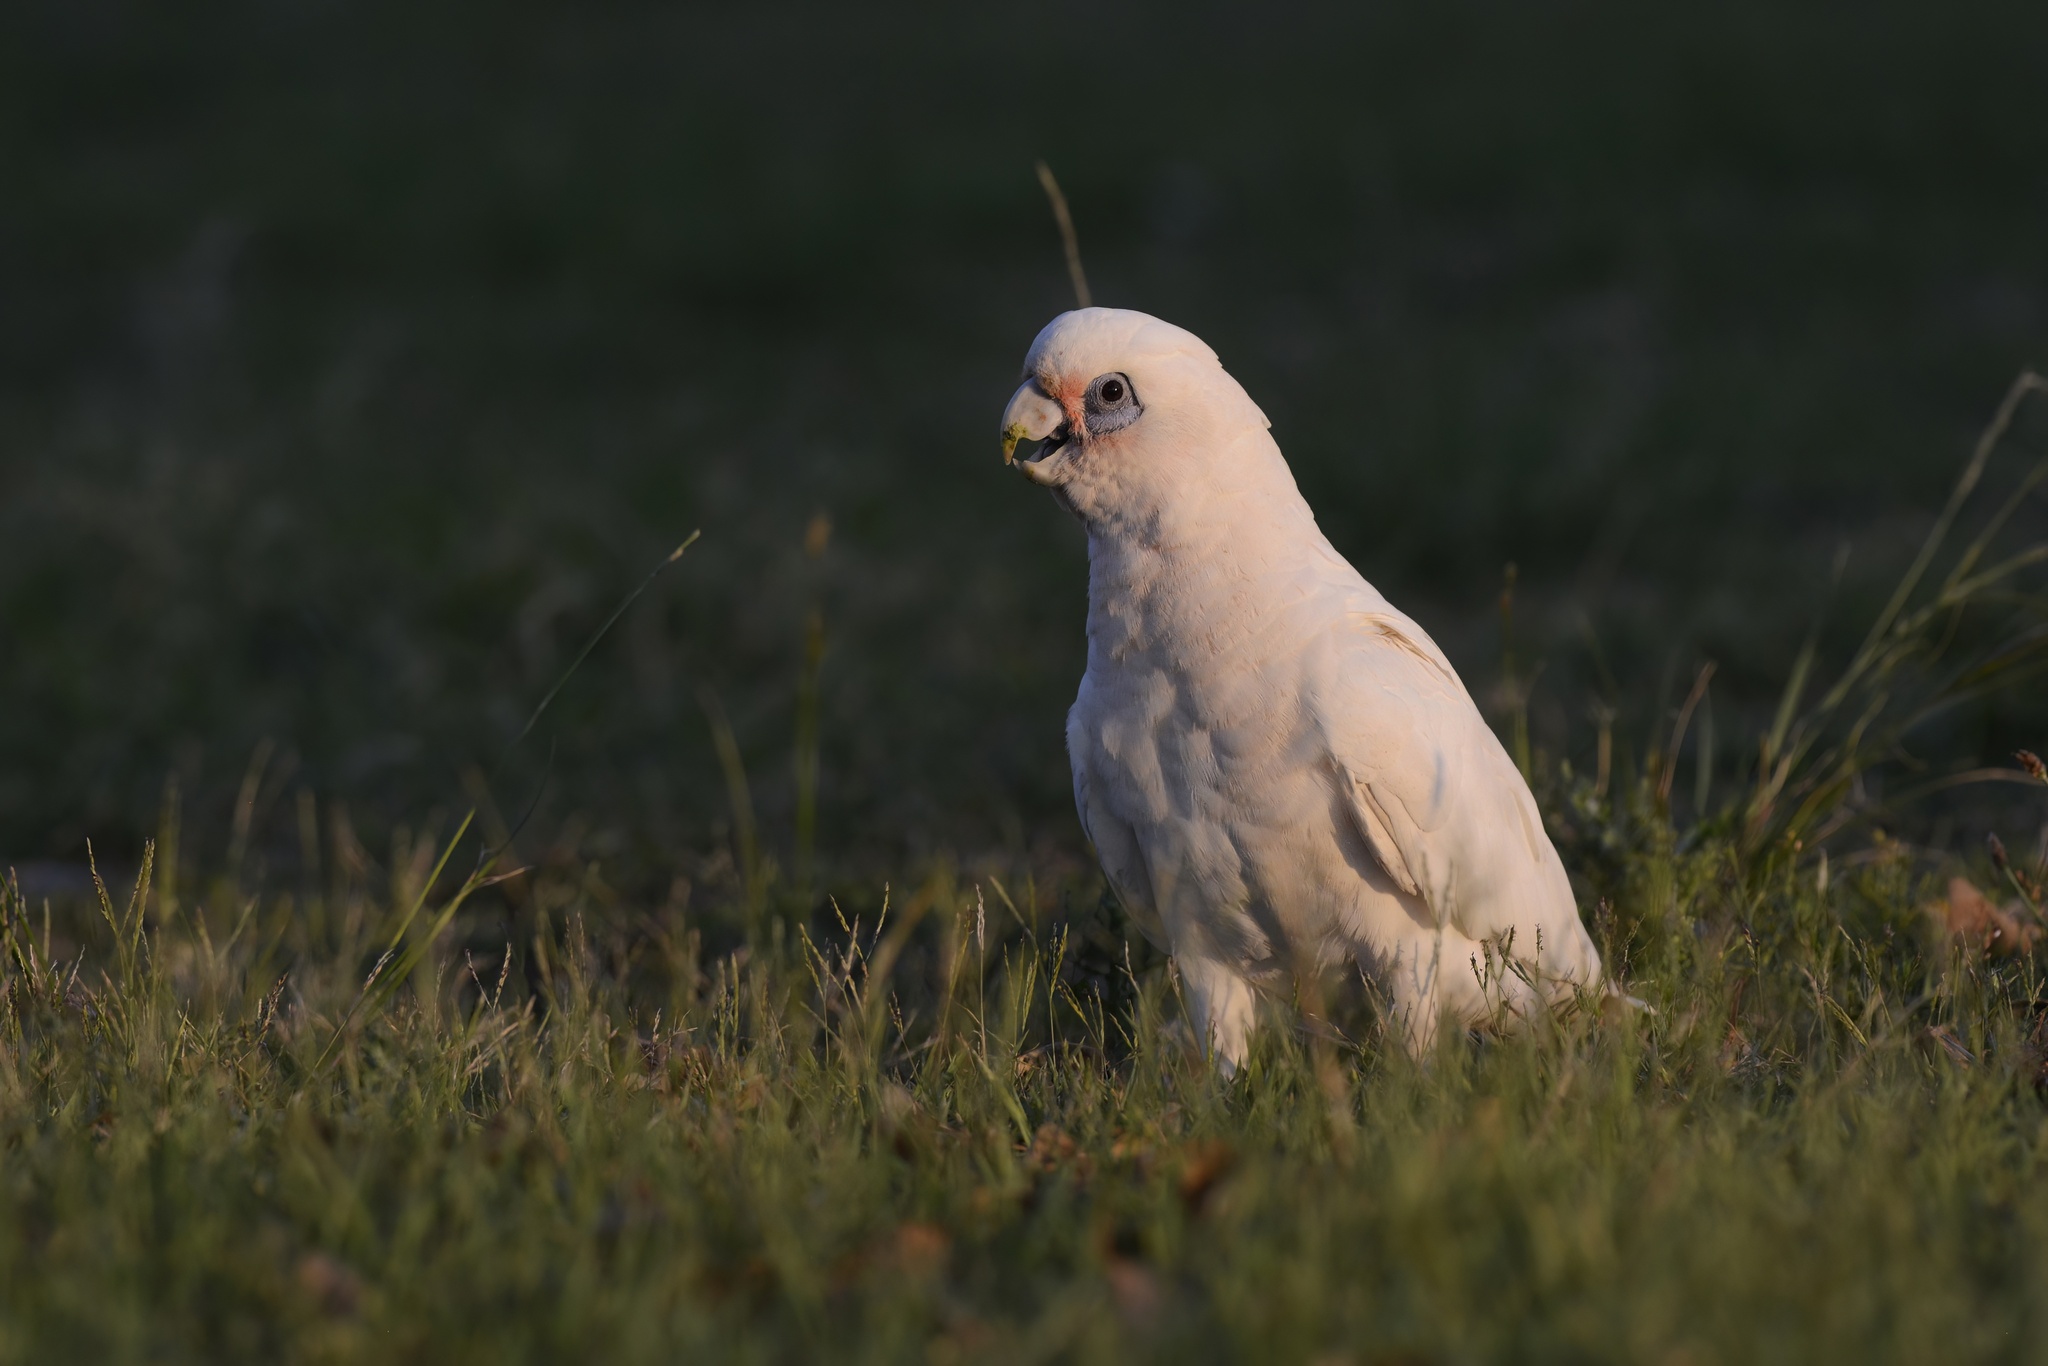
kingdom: Animalia
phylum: Chordata
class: Aves
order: Psittaciformes
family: Psittacidae
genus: Cacatua
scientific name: Cacatua sanguinea
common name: Little corella
